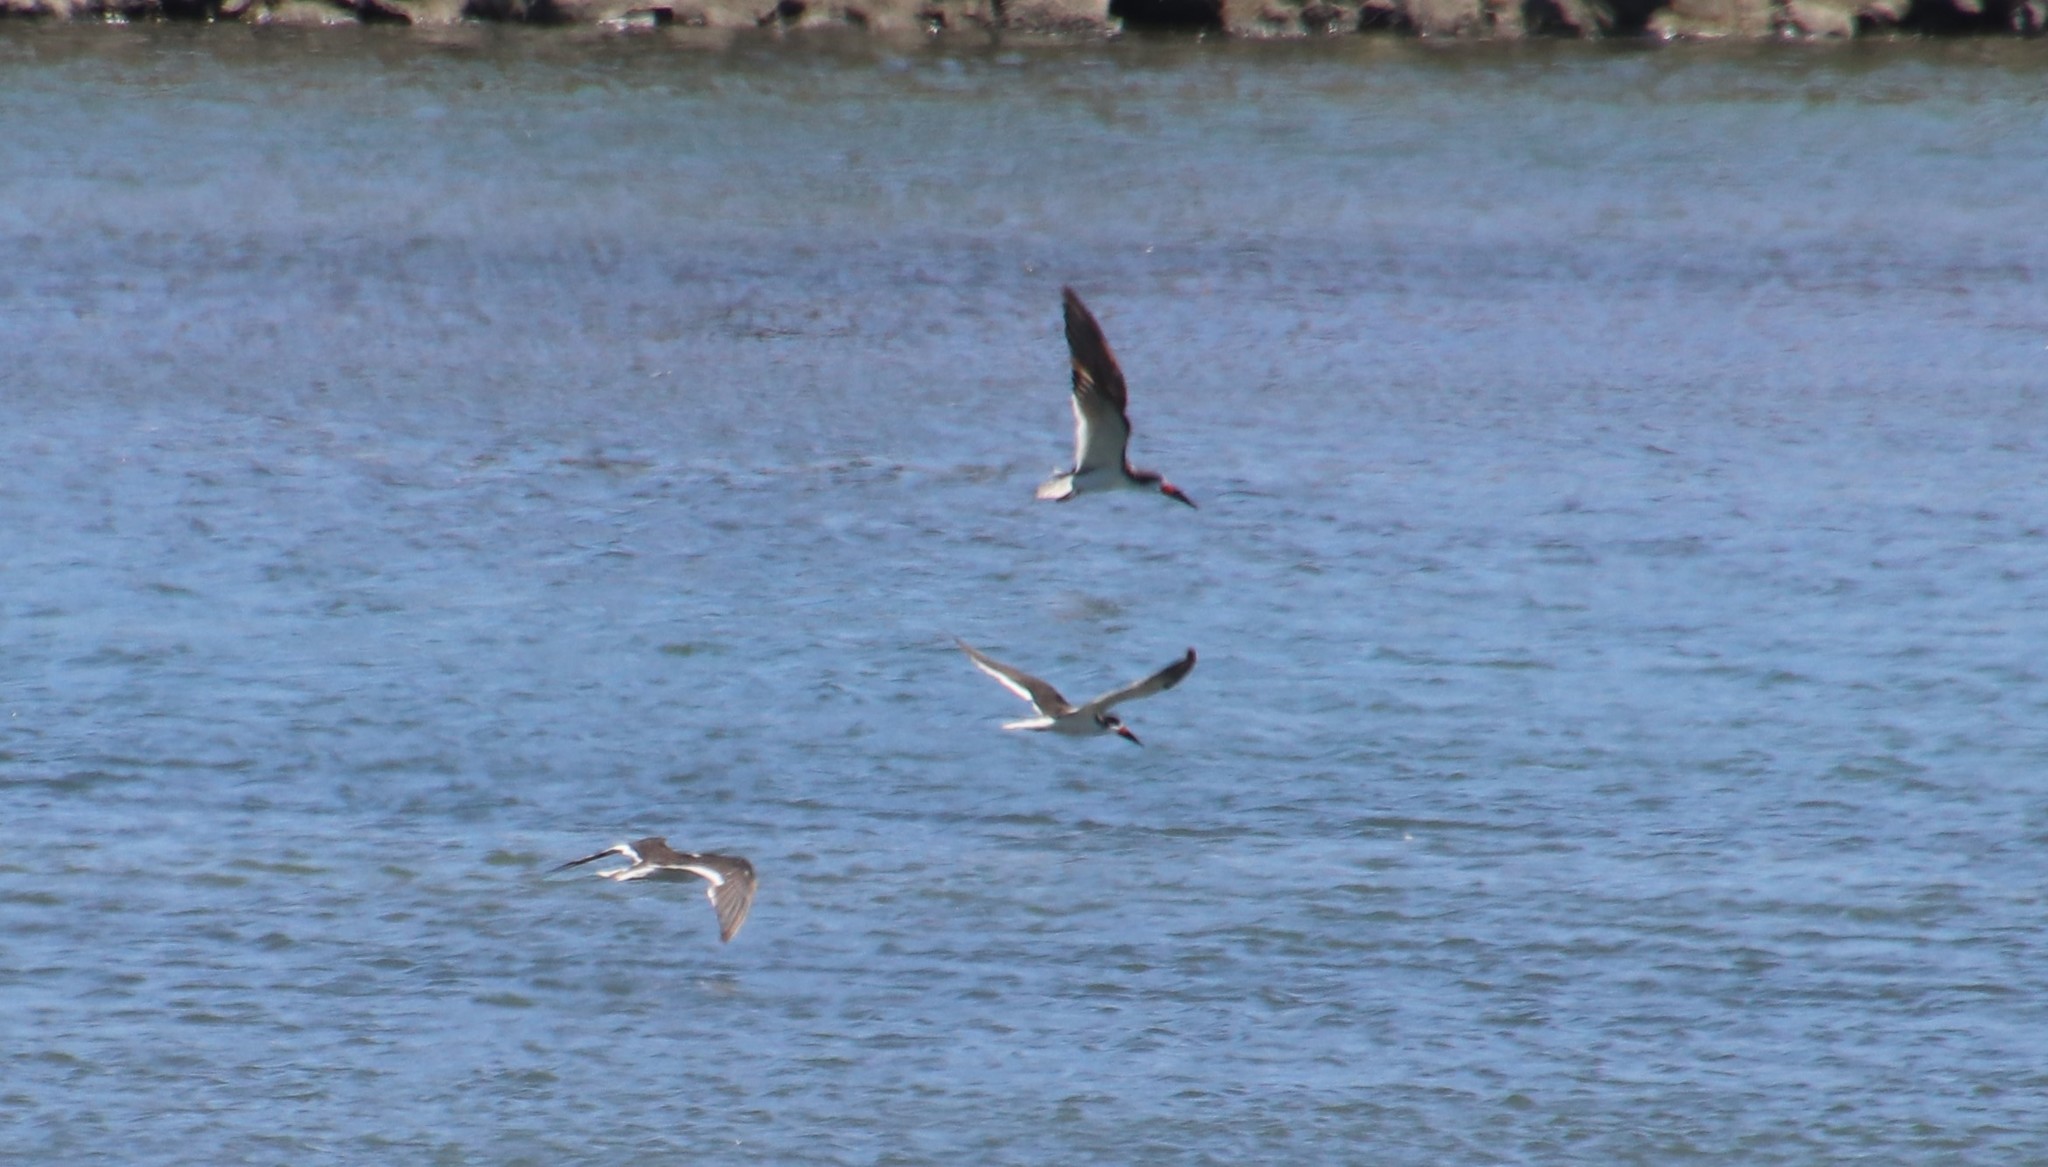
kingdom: Animalia
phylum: Chordata
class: Aves
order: Charadriiformes
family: Laridae
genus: Rynchops
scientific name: Rynchops niger
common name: Black skimmer
